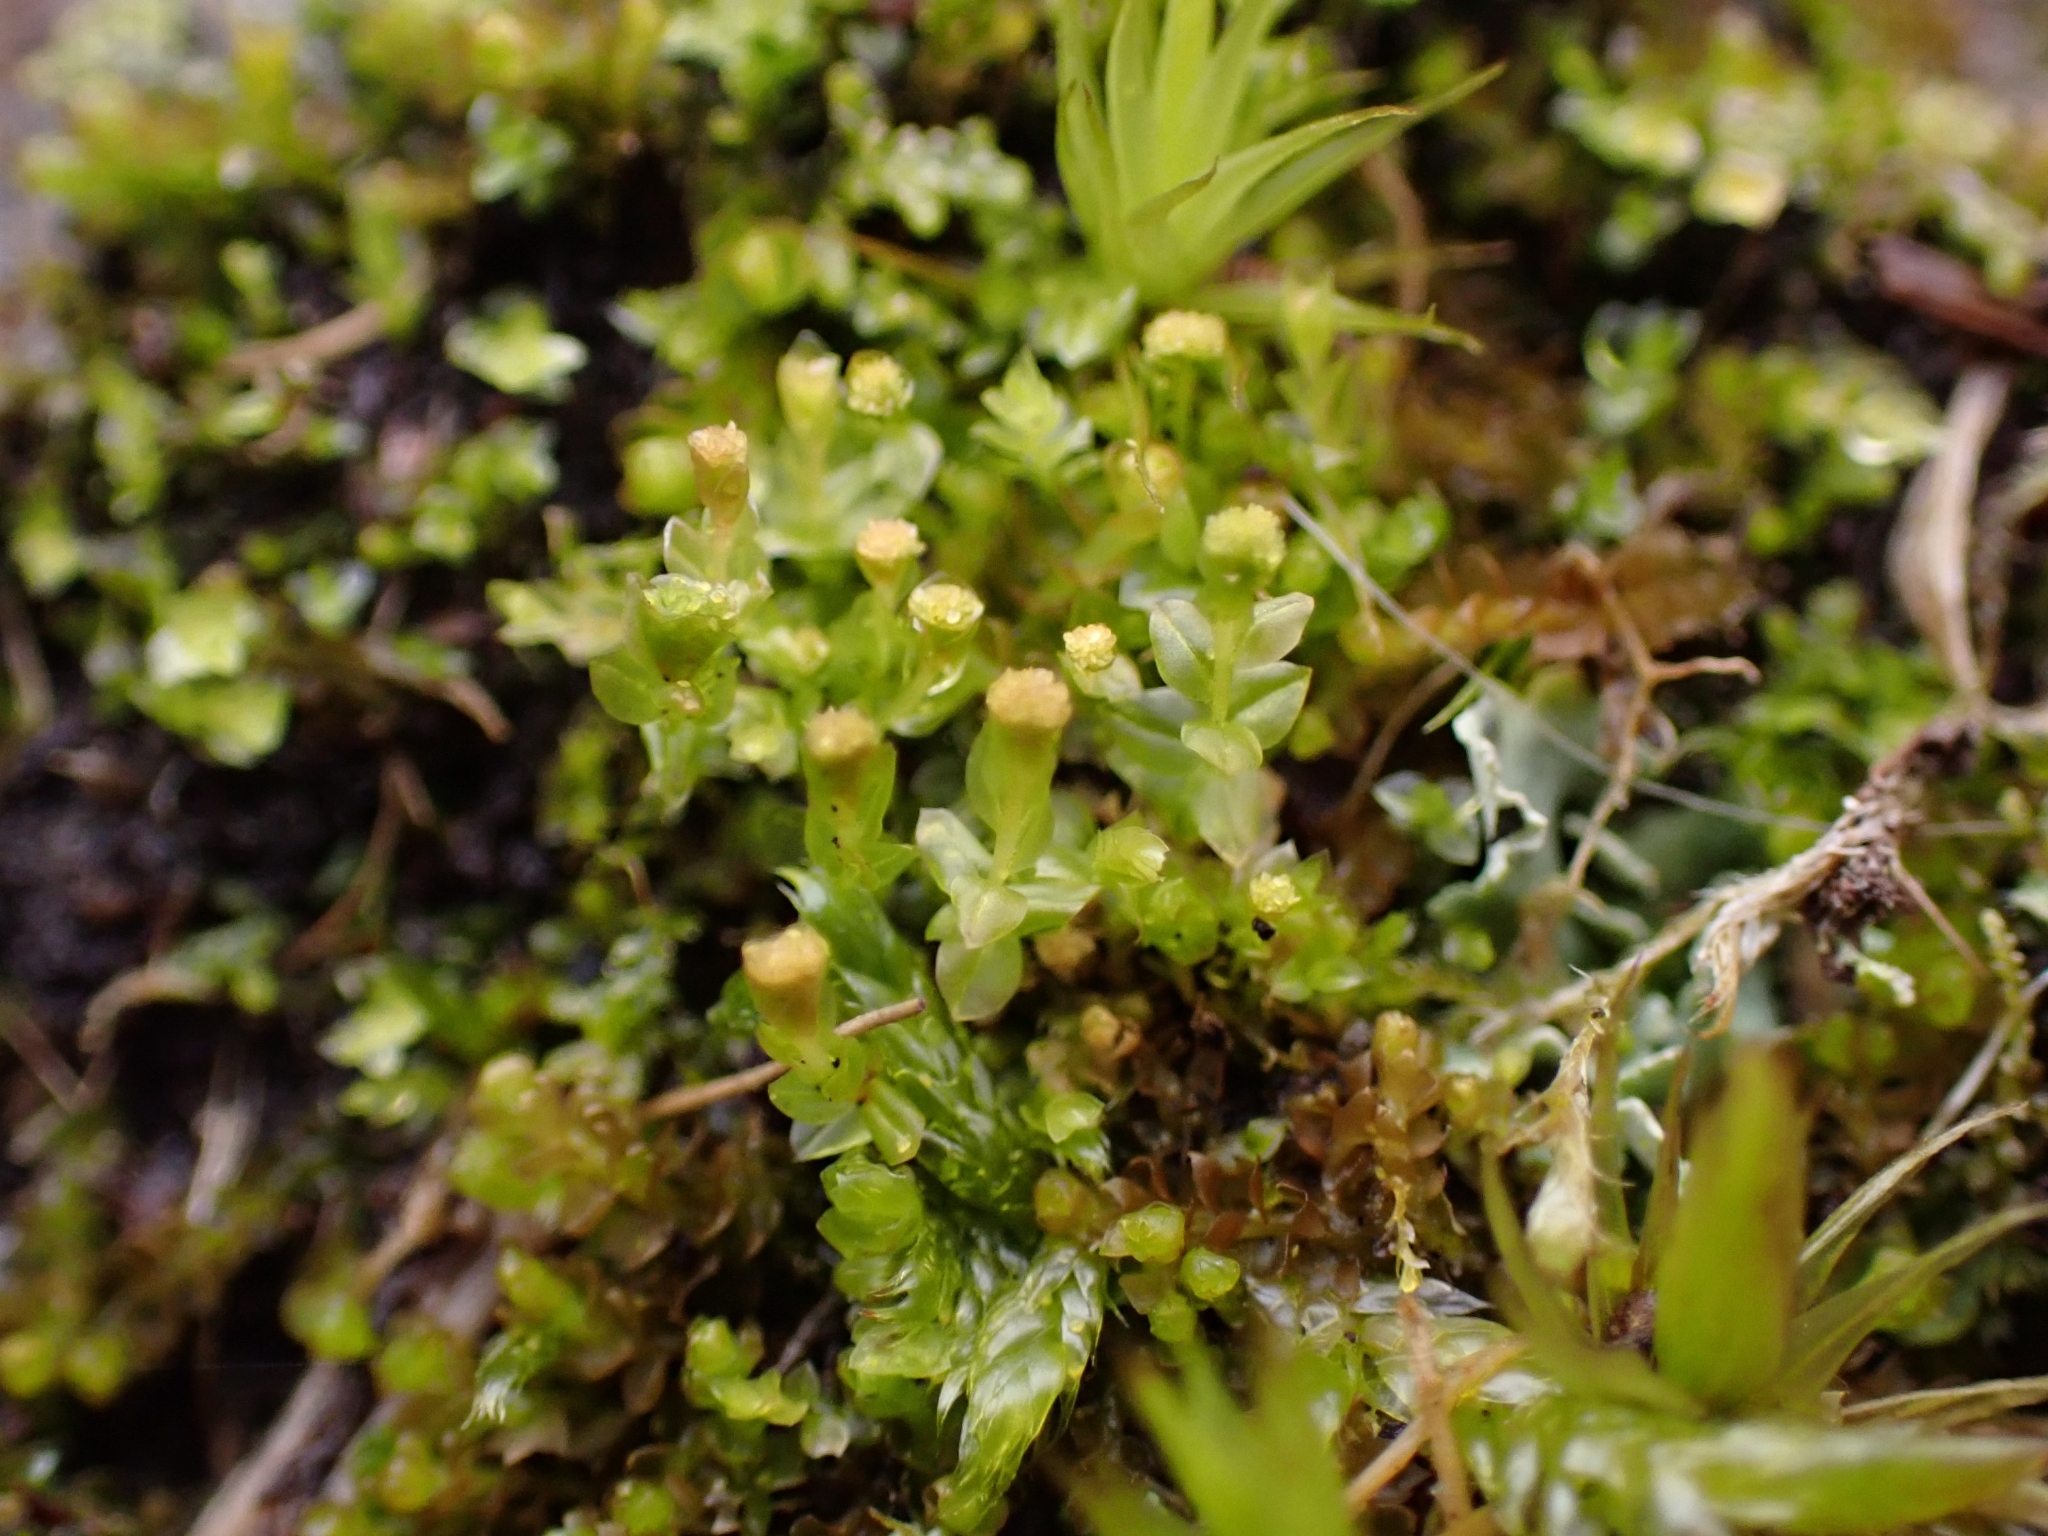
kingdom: Plantae
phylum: Bryophyta
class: Polytrichopsida
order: Tetraphidales
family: Tetraphidaceae
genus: Tetraphis
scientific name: Tetraphis pellucida
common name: Common four-toothed moss
